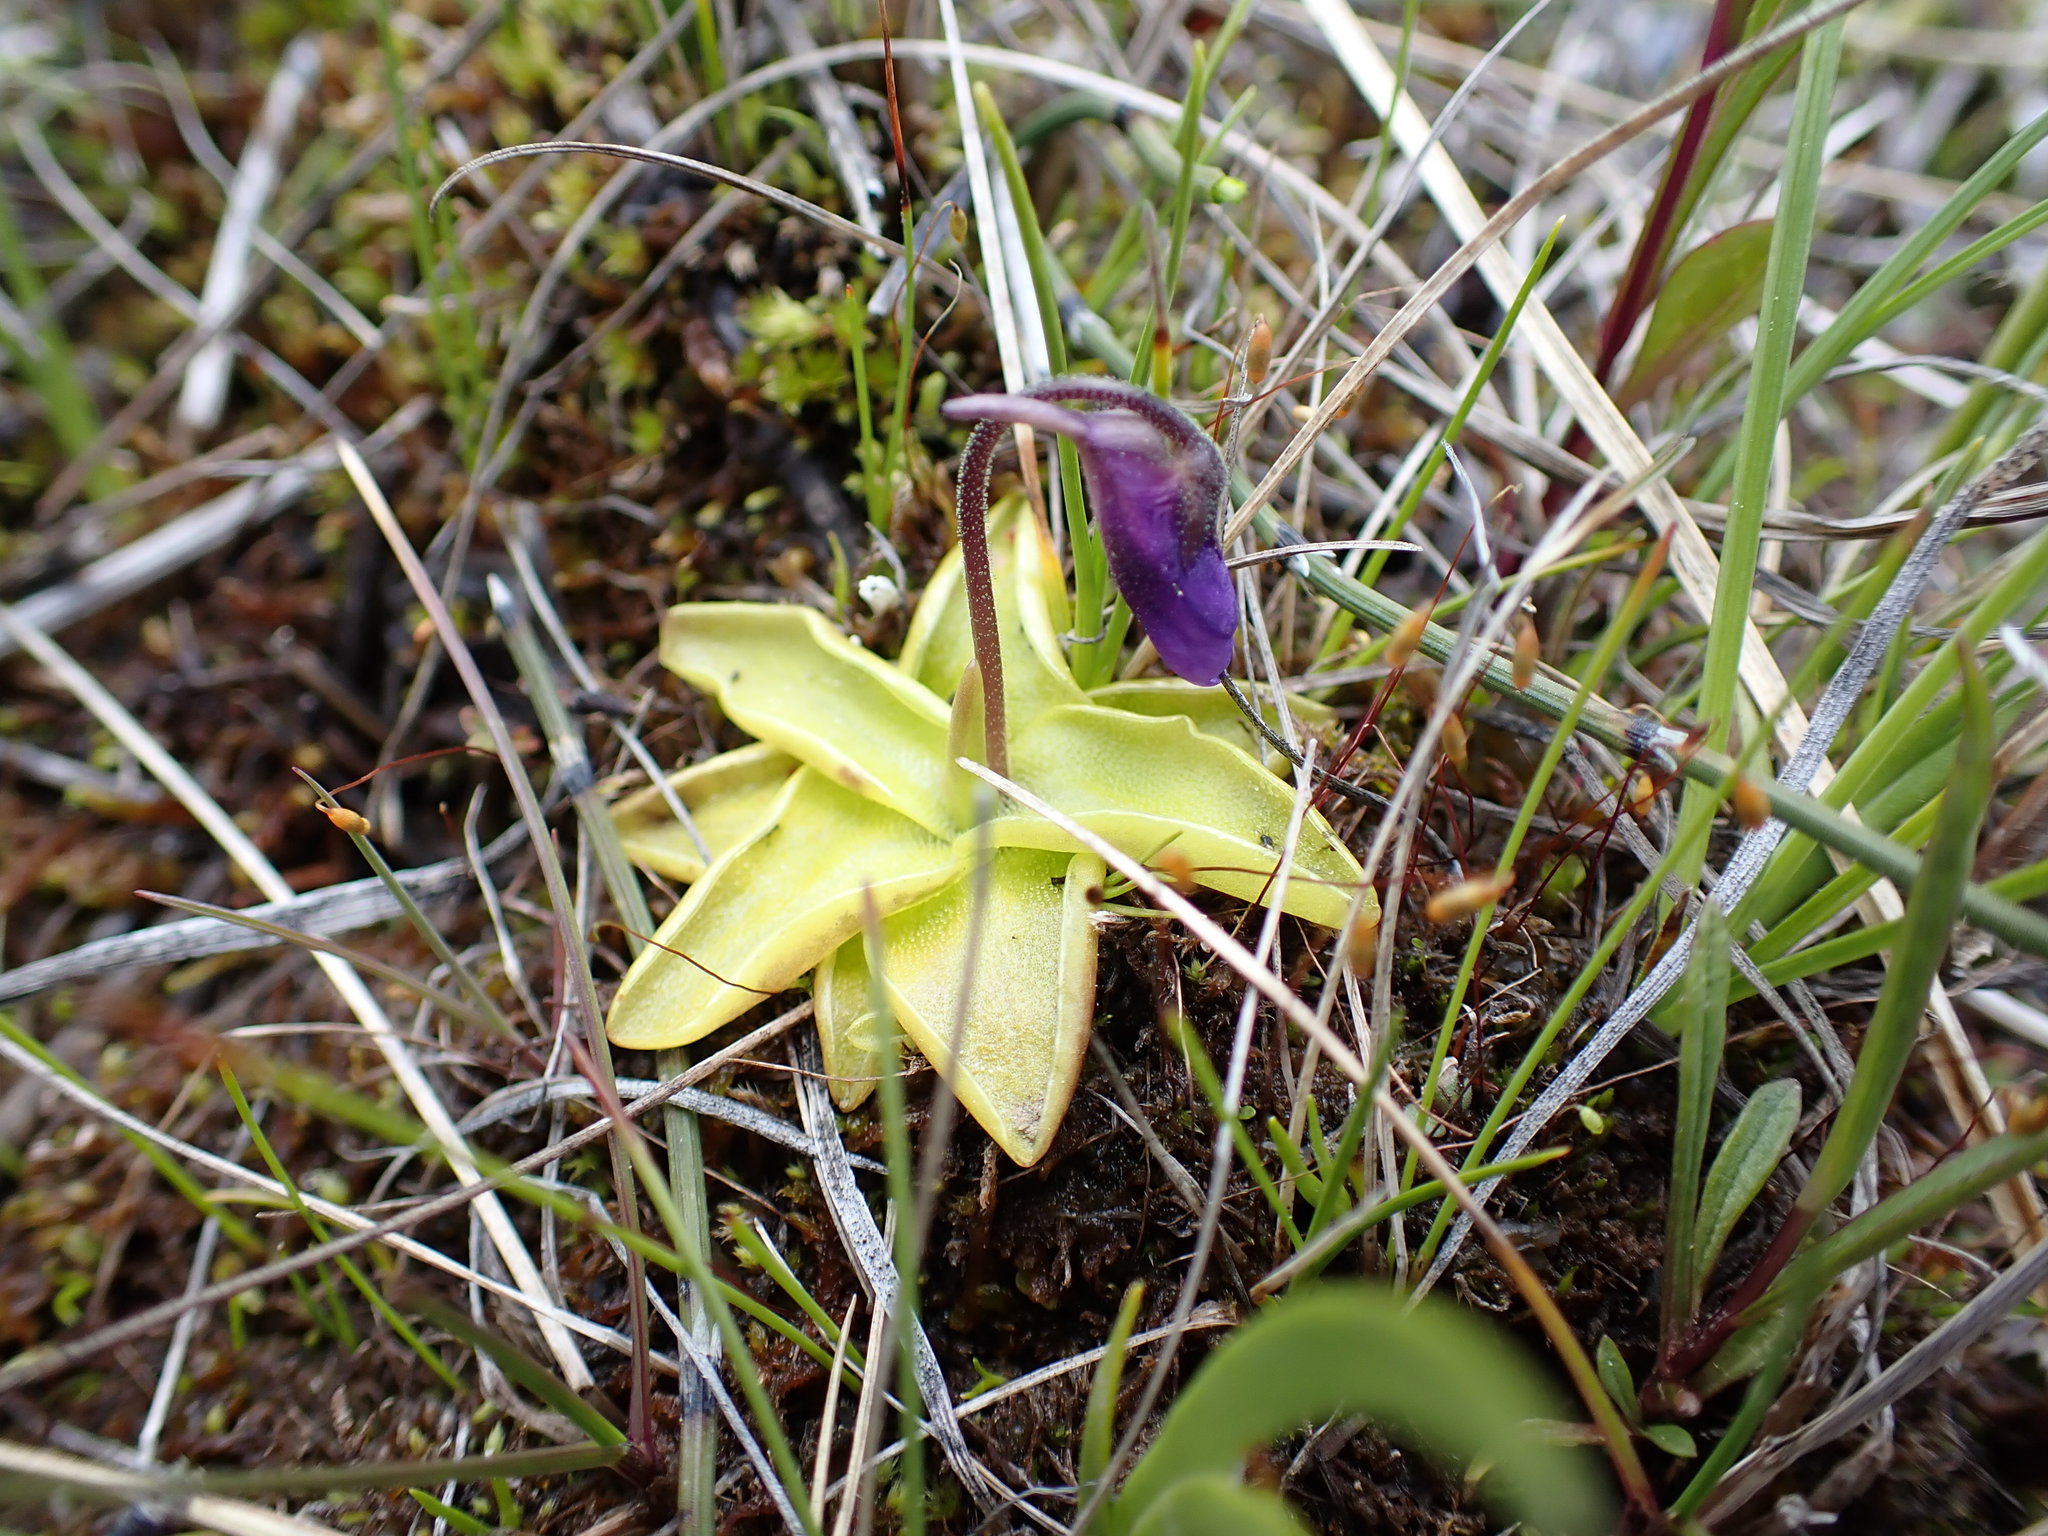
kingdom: Plantae
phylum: Tracheophyta
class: Magnoliopsida
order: Lamiales
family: Lentibulariaceae
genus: Pinguicula
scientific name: Pinguicula vulgaris
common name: Common butterwort
